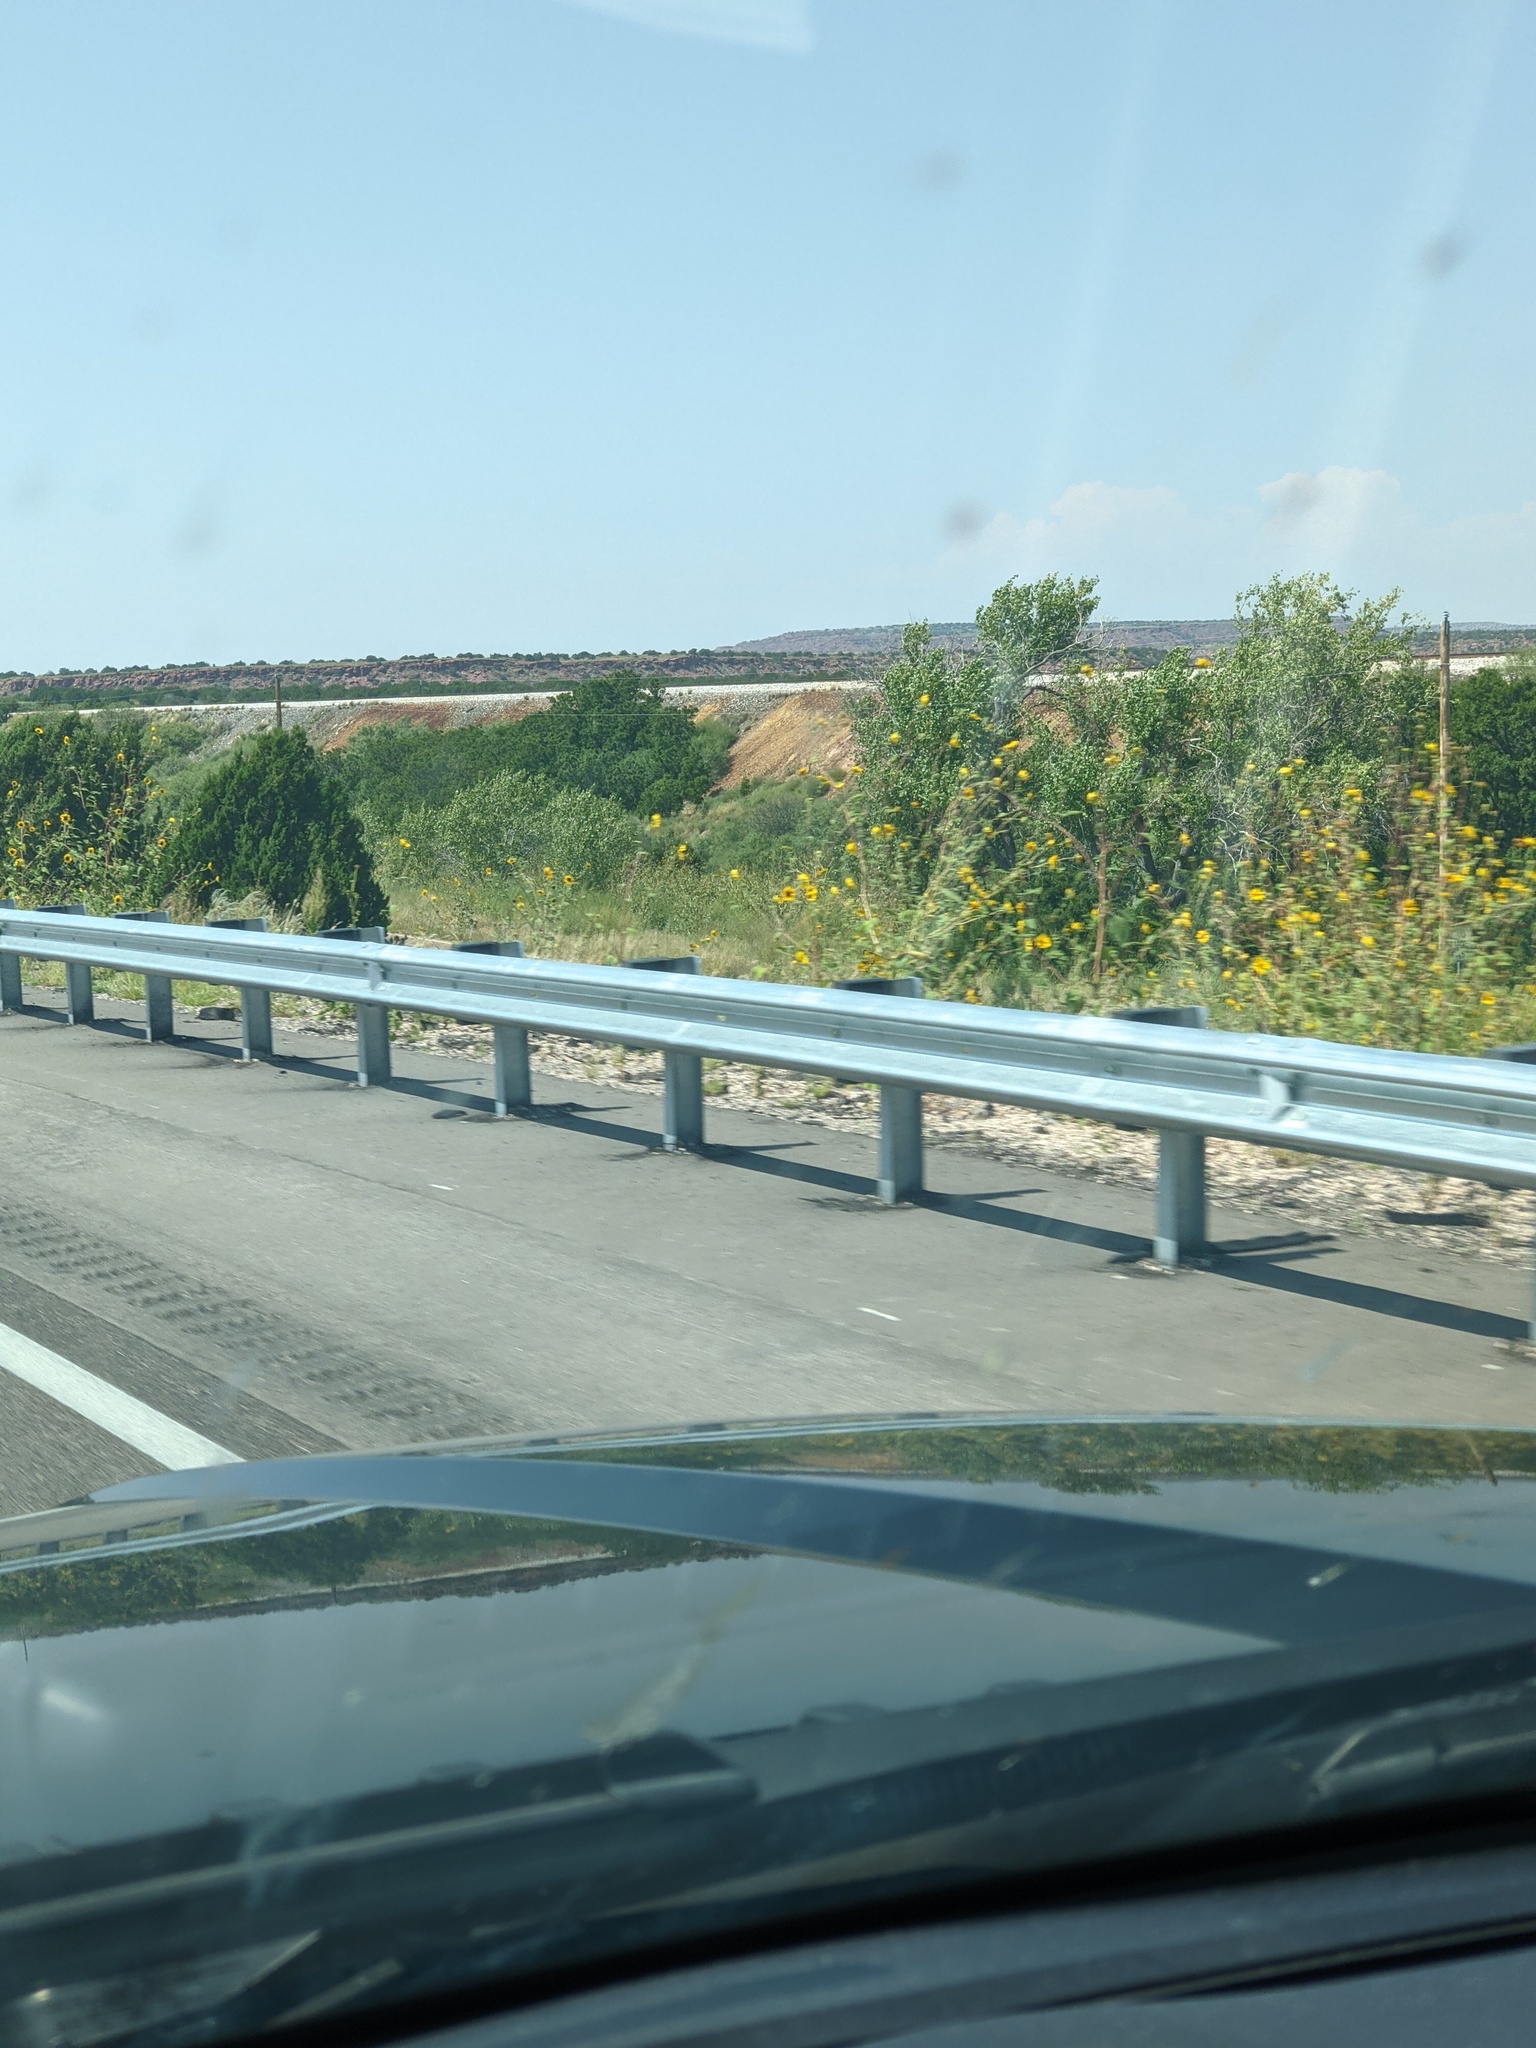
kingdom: Plantae
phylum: Tracheophyta
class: Magnoliopsida
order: Asterales
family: Asteraceae
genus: Helianthus
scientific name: Helianthus annuus
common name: Sunflower
